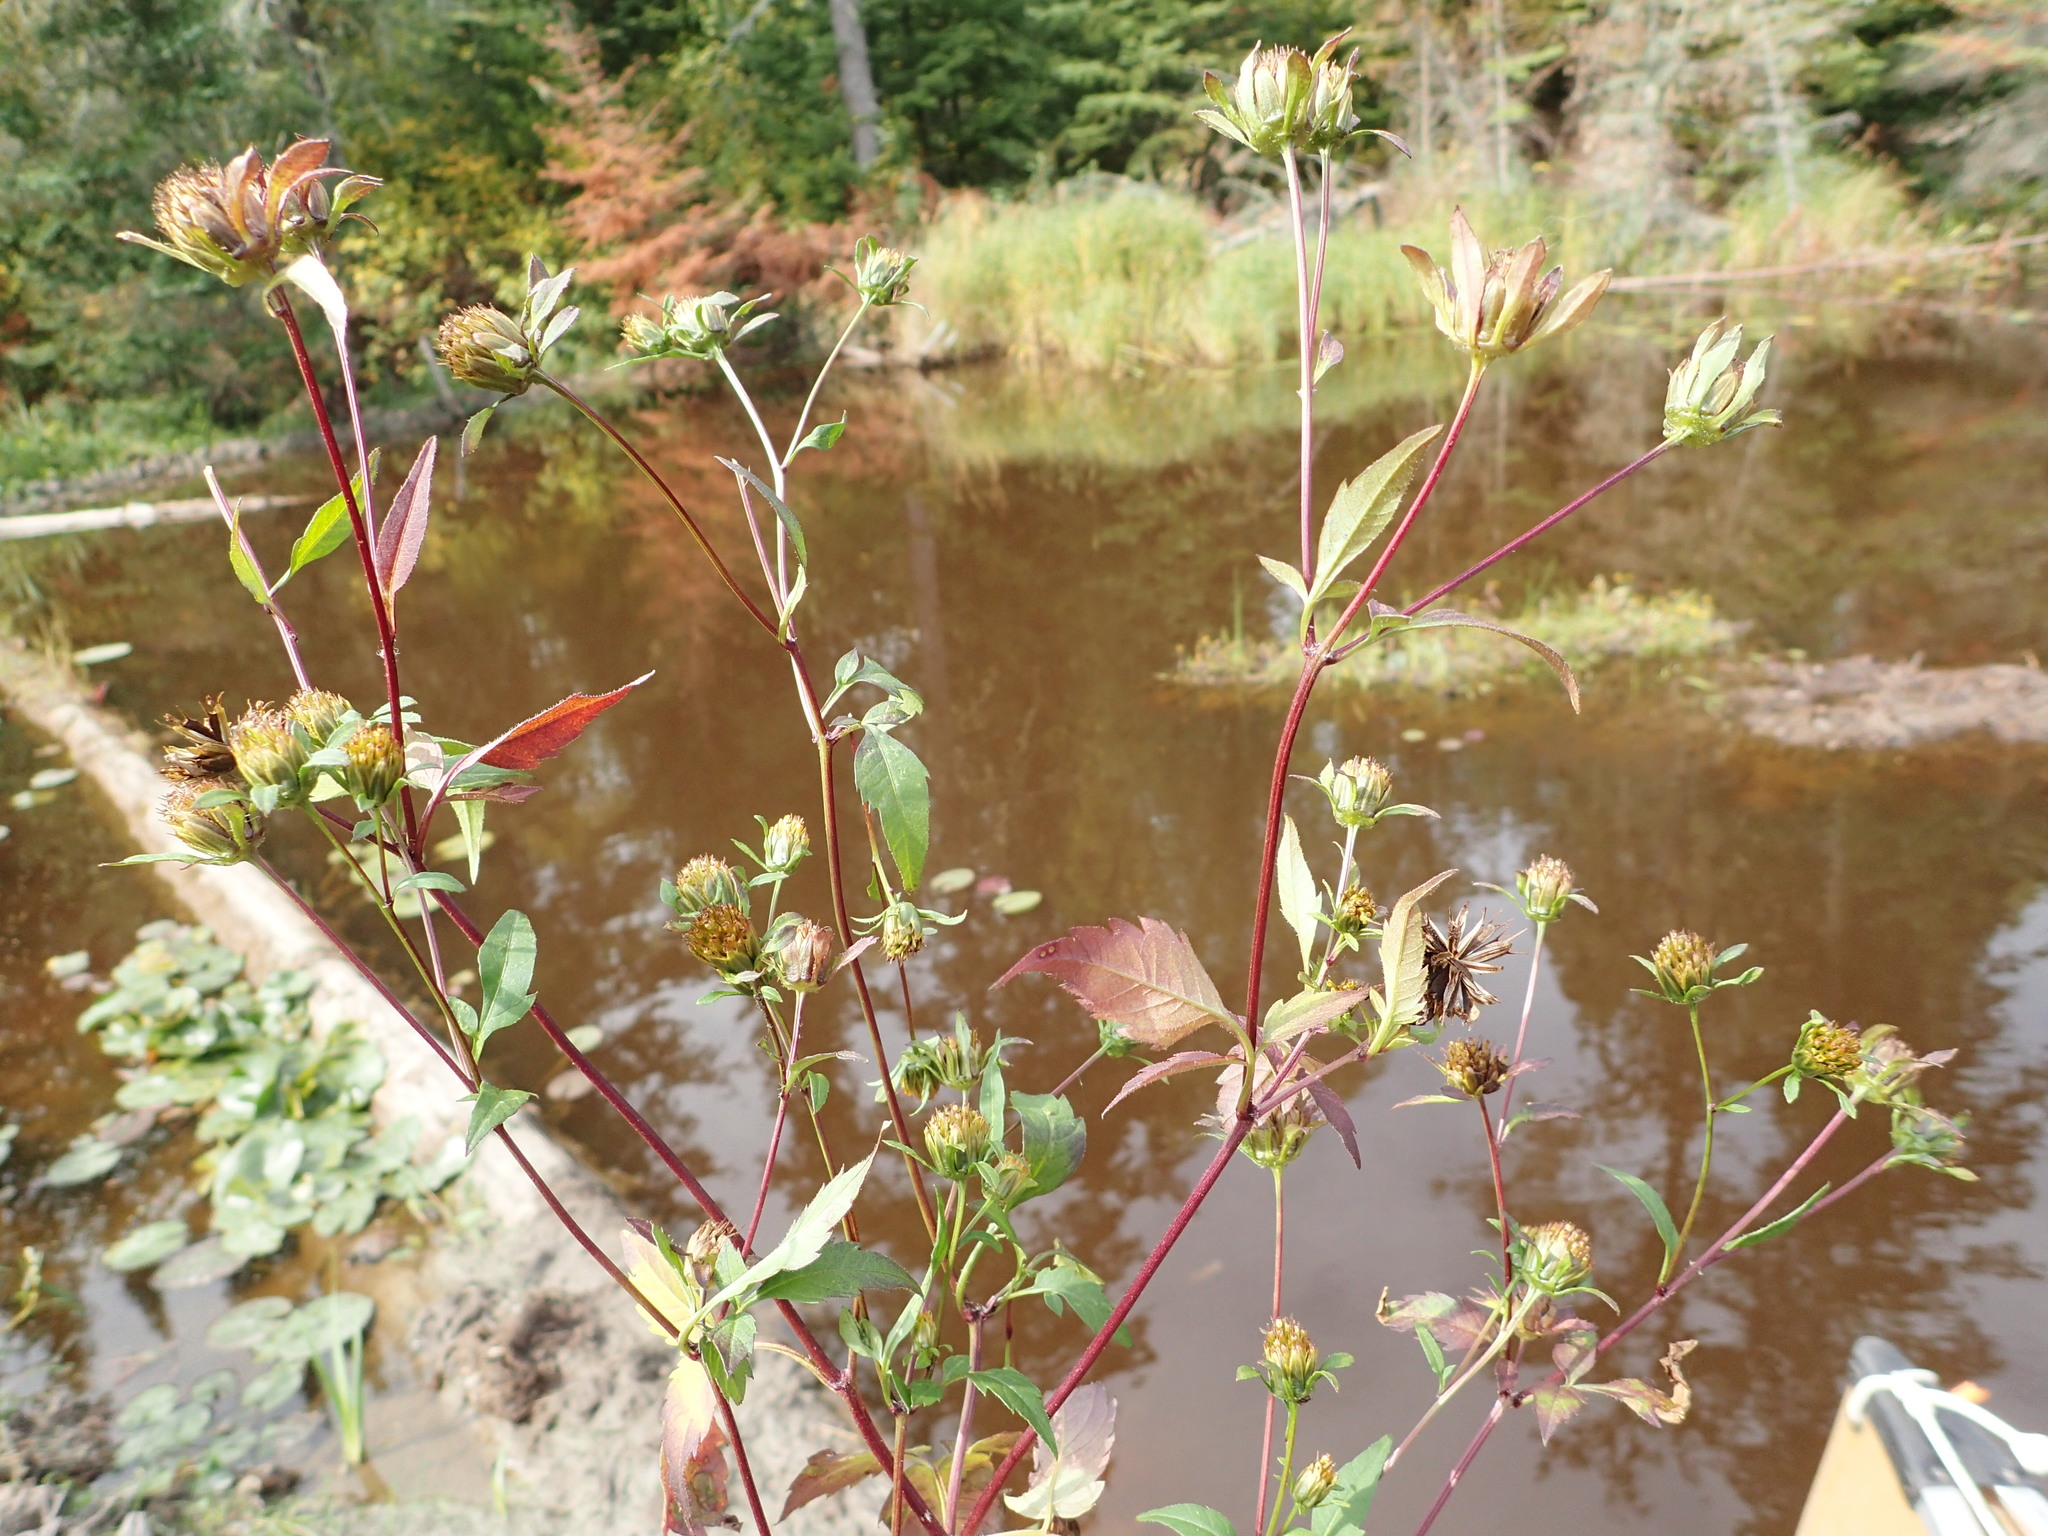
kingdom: Plantae
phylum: Tracheophyta
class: Magnoliopsida
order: Asterales
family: Asteraceae
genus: Bidens
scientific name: Bidens frondosa
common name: Beggarticks
